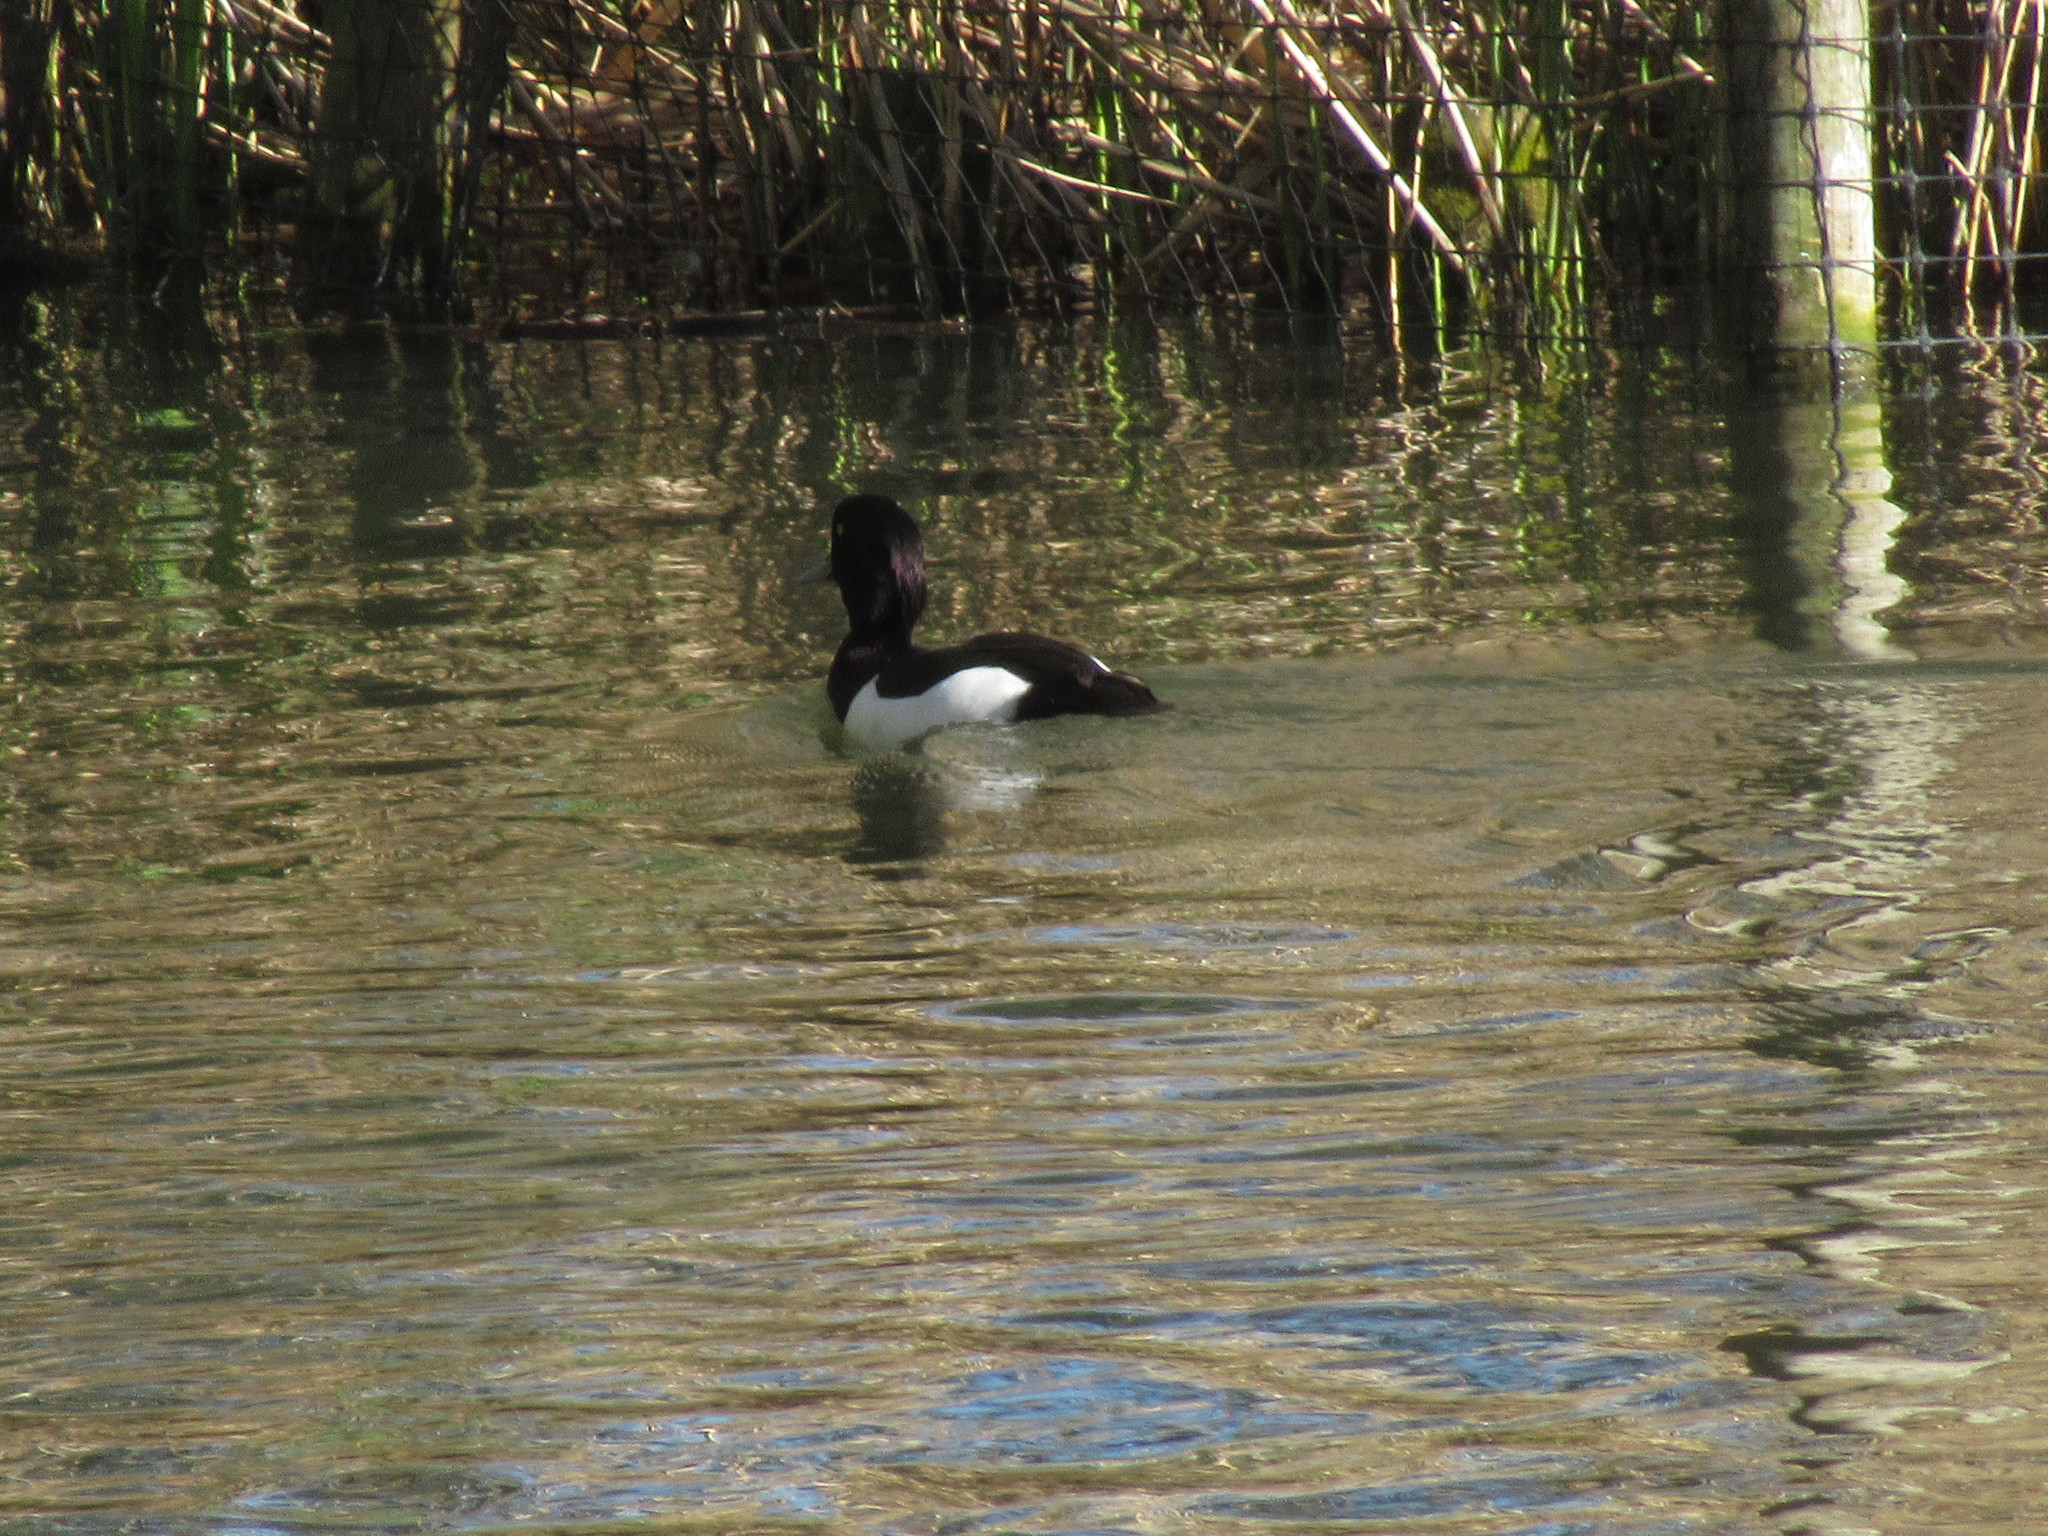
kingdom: Animalia
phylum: Chordata
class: Aves
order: Anseriformes
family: Anatidae
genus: Aythya
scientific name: Aythya fuligula
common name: Tufted duck
